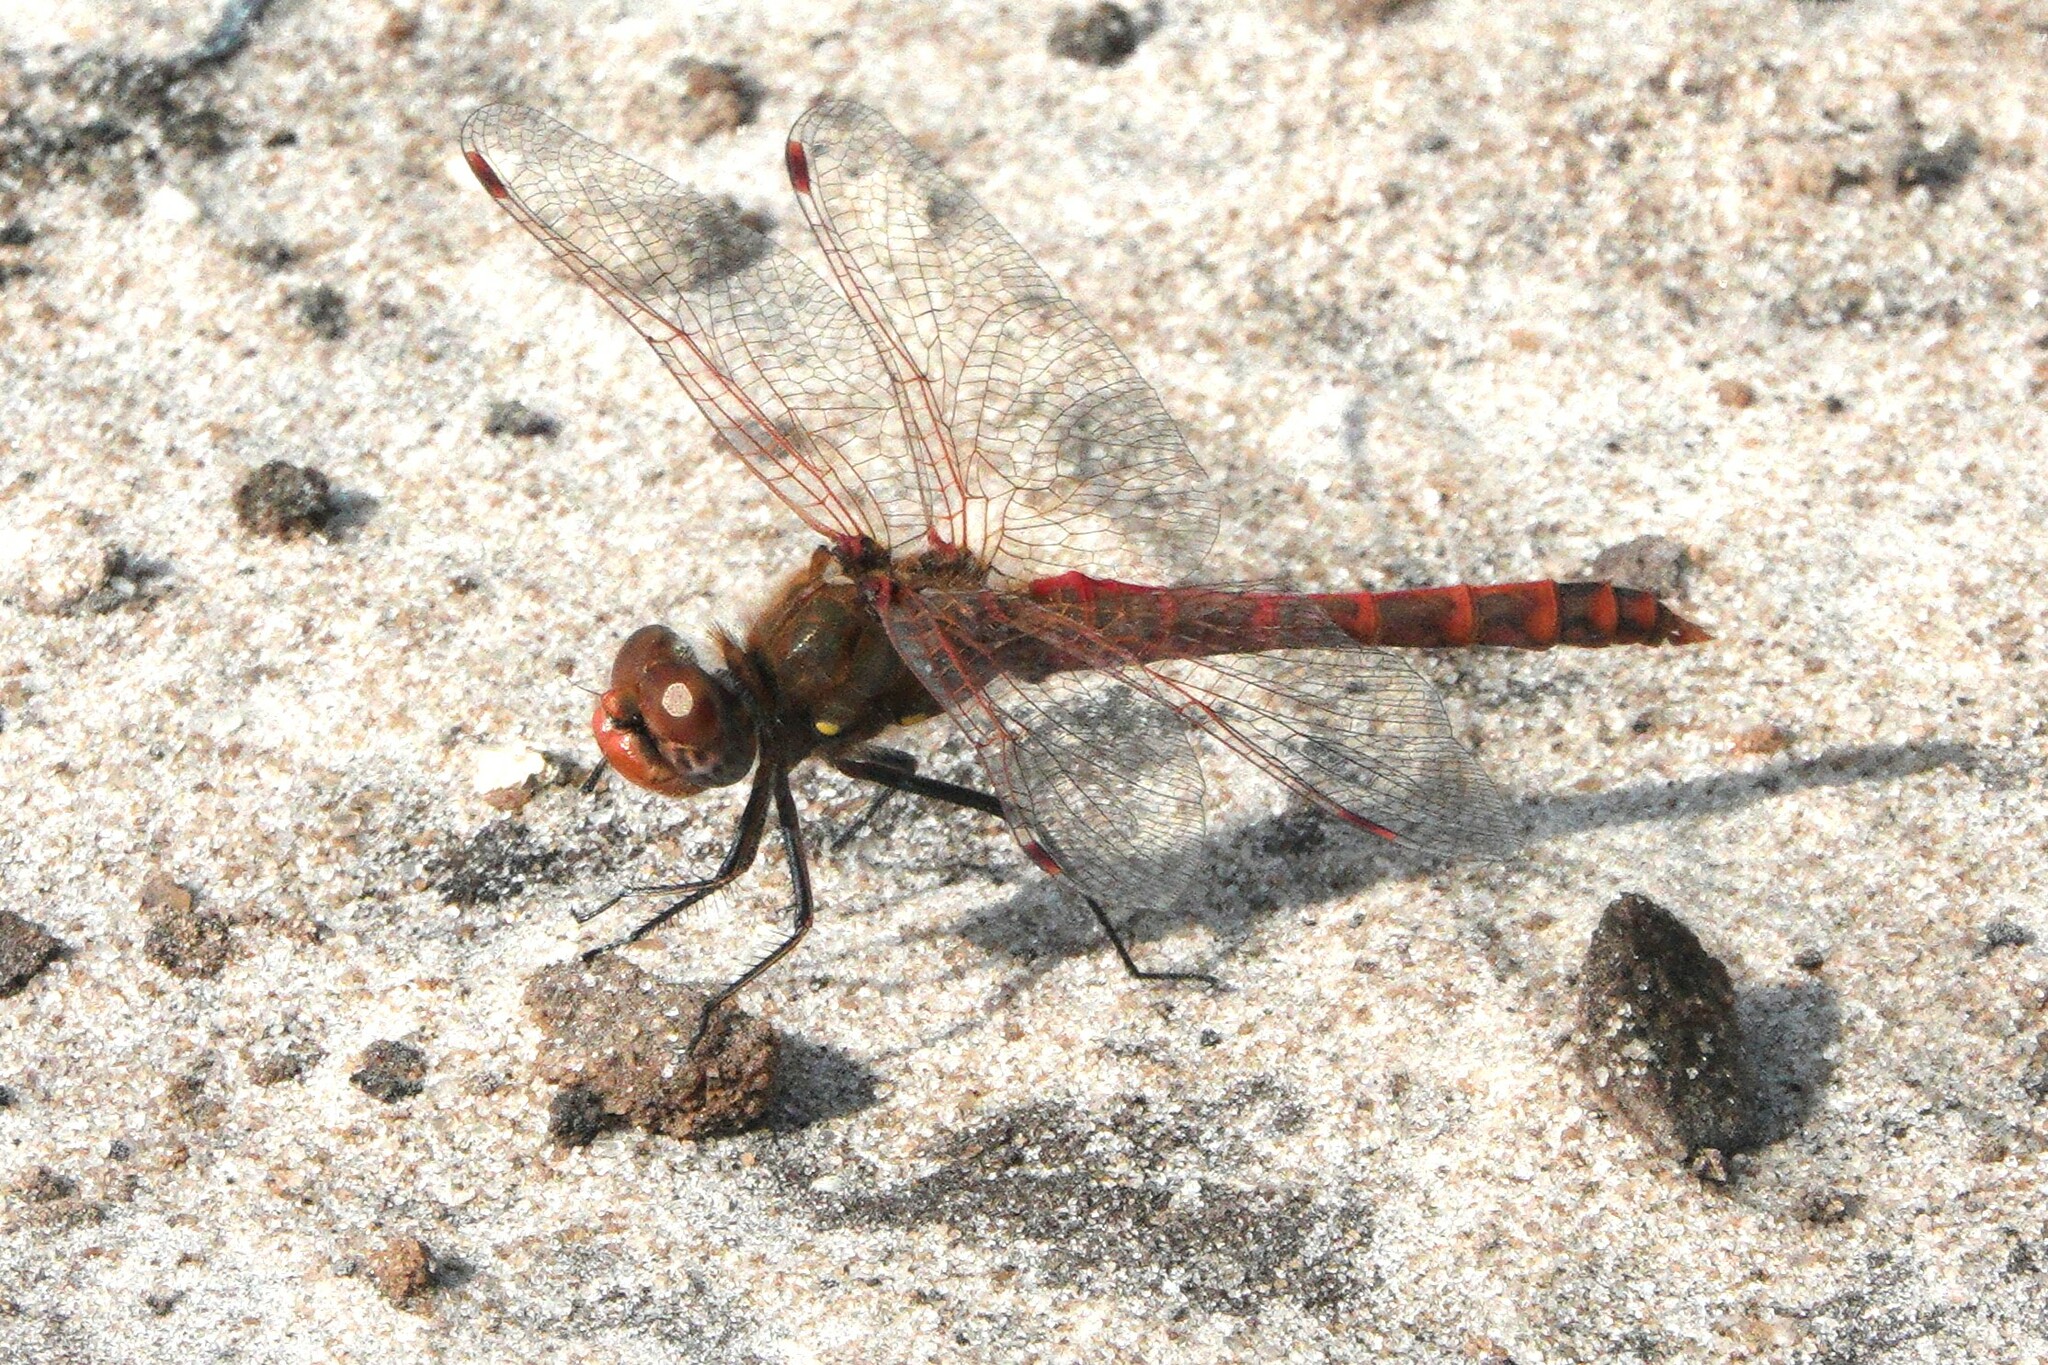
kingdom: Animalia
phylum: Arthropoda
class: Insecta
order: Odonata
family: Libellulidae
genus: Sympetrum
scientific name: Sympetrum corruptum
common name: Variegated meadowhawk
